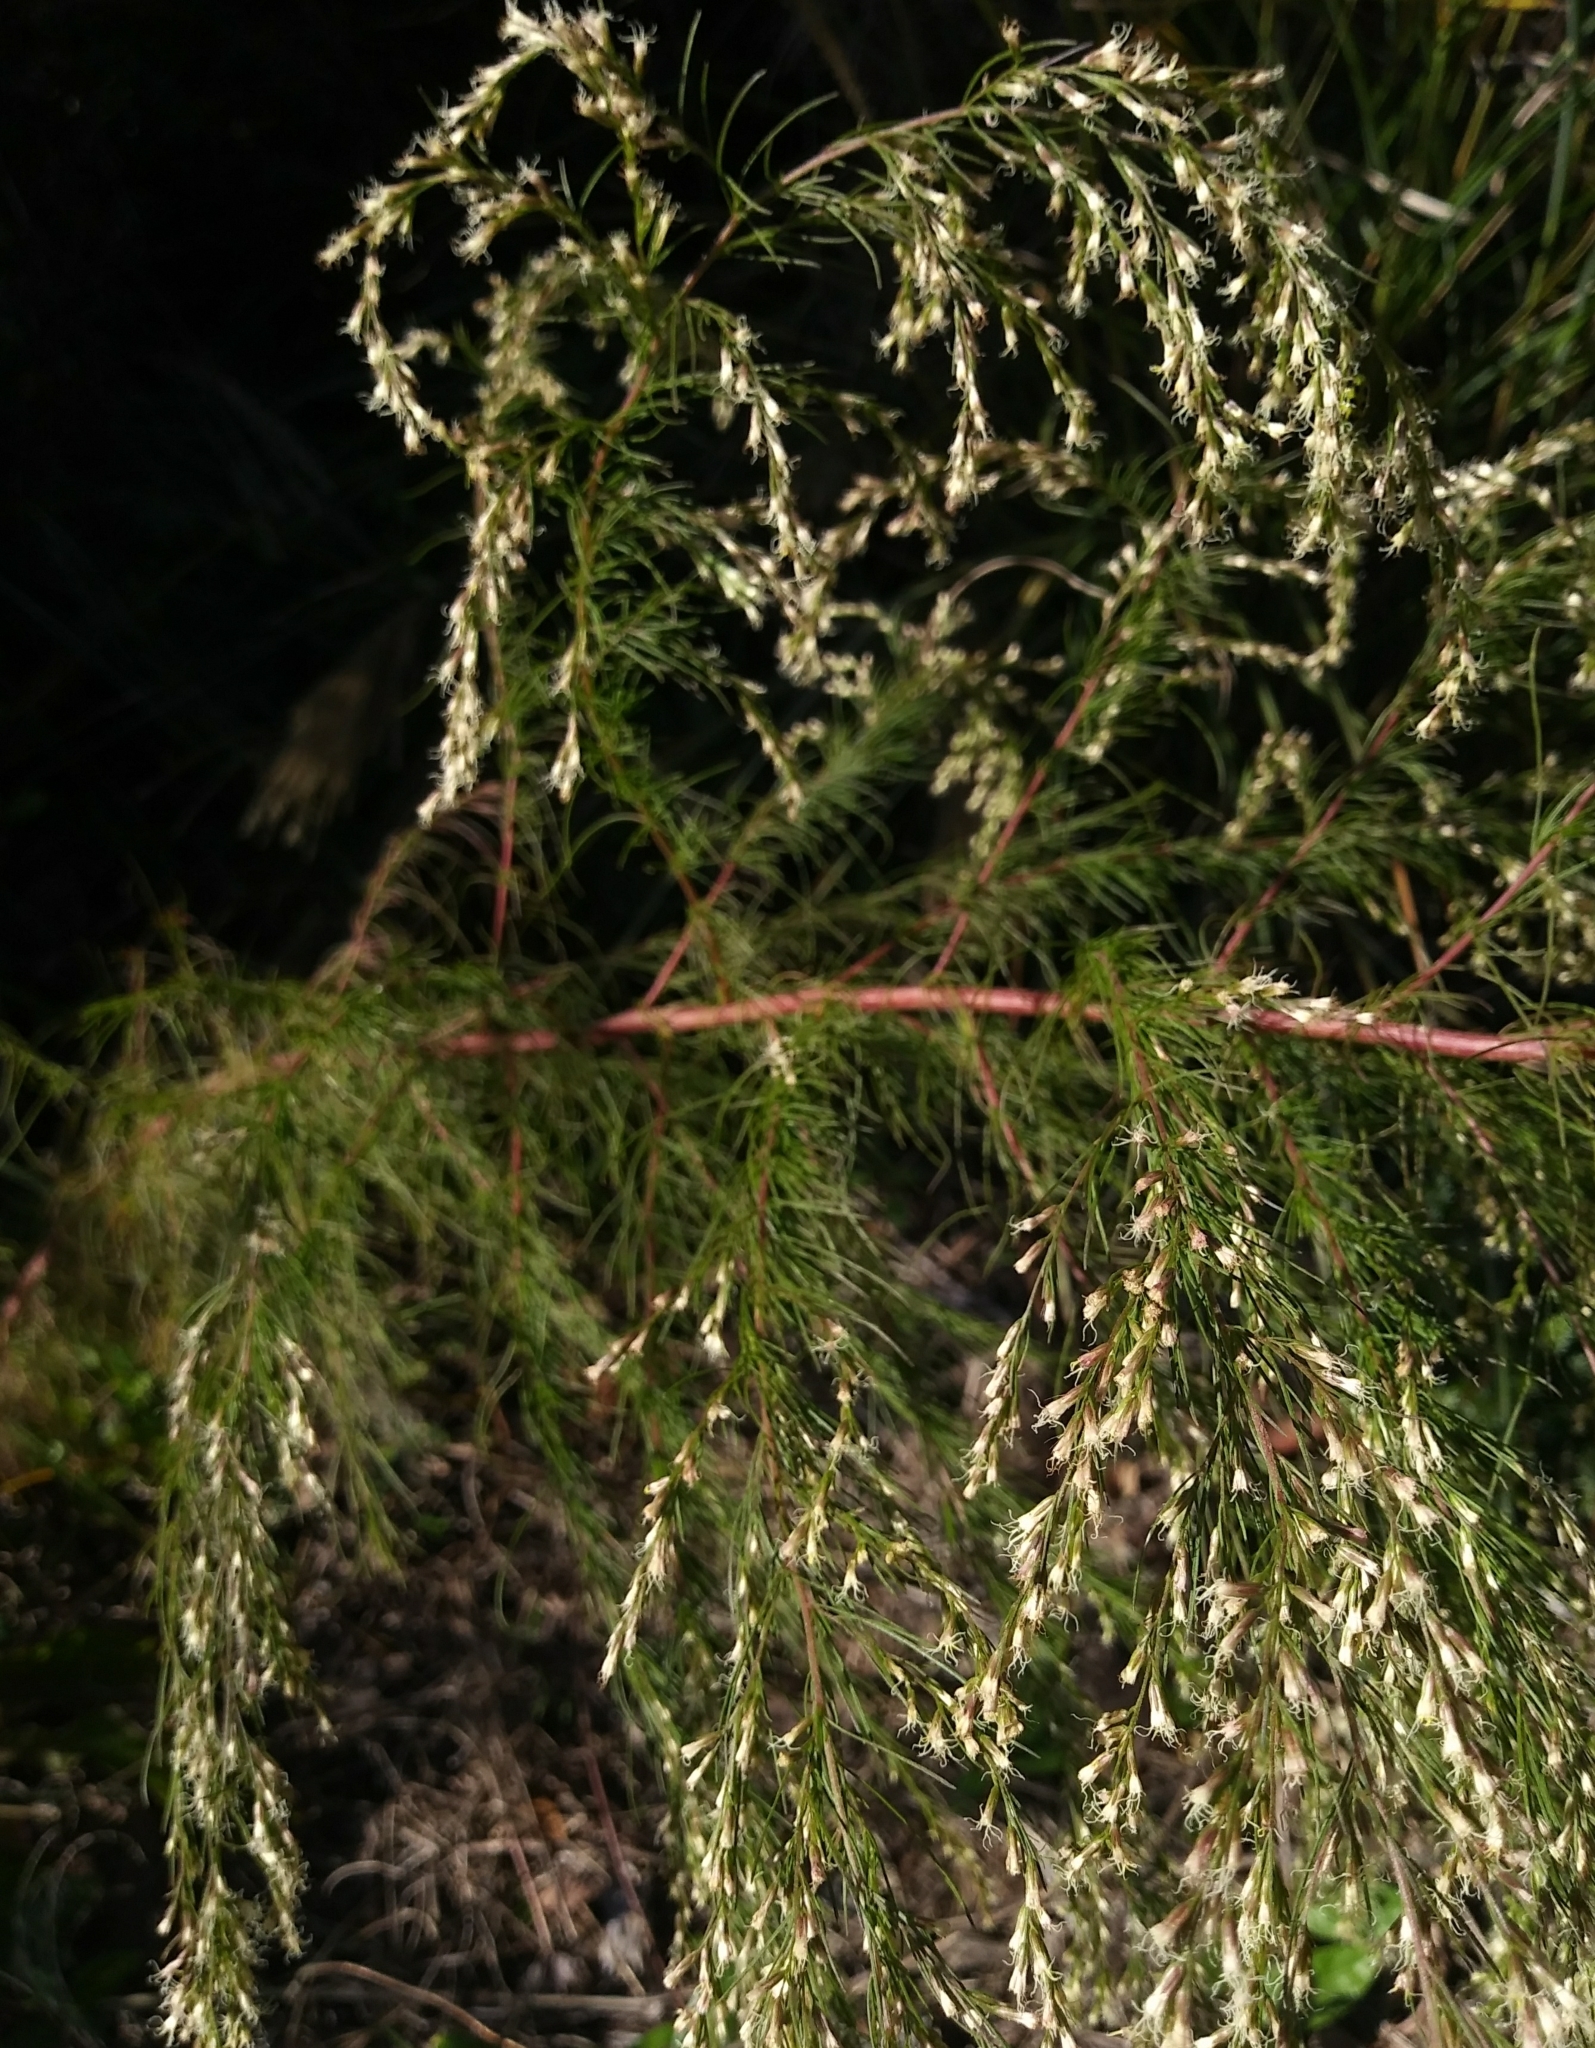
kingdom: Plantae
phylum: Tracheophyta
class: Magnoliopsida
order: Asterales
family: Asteraceae
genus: Eupatorium
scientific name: Eupatorium capillifolium
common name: Dog-fennel
